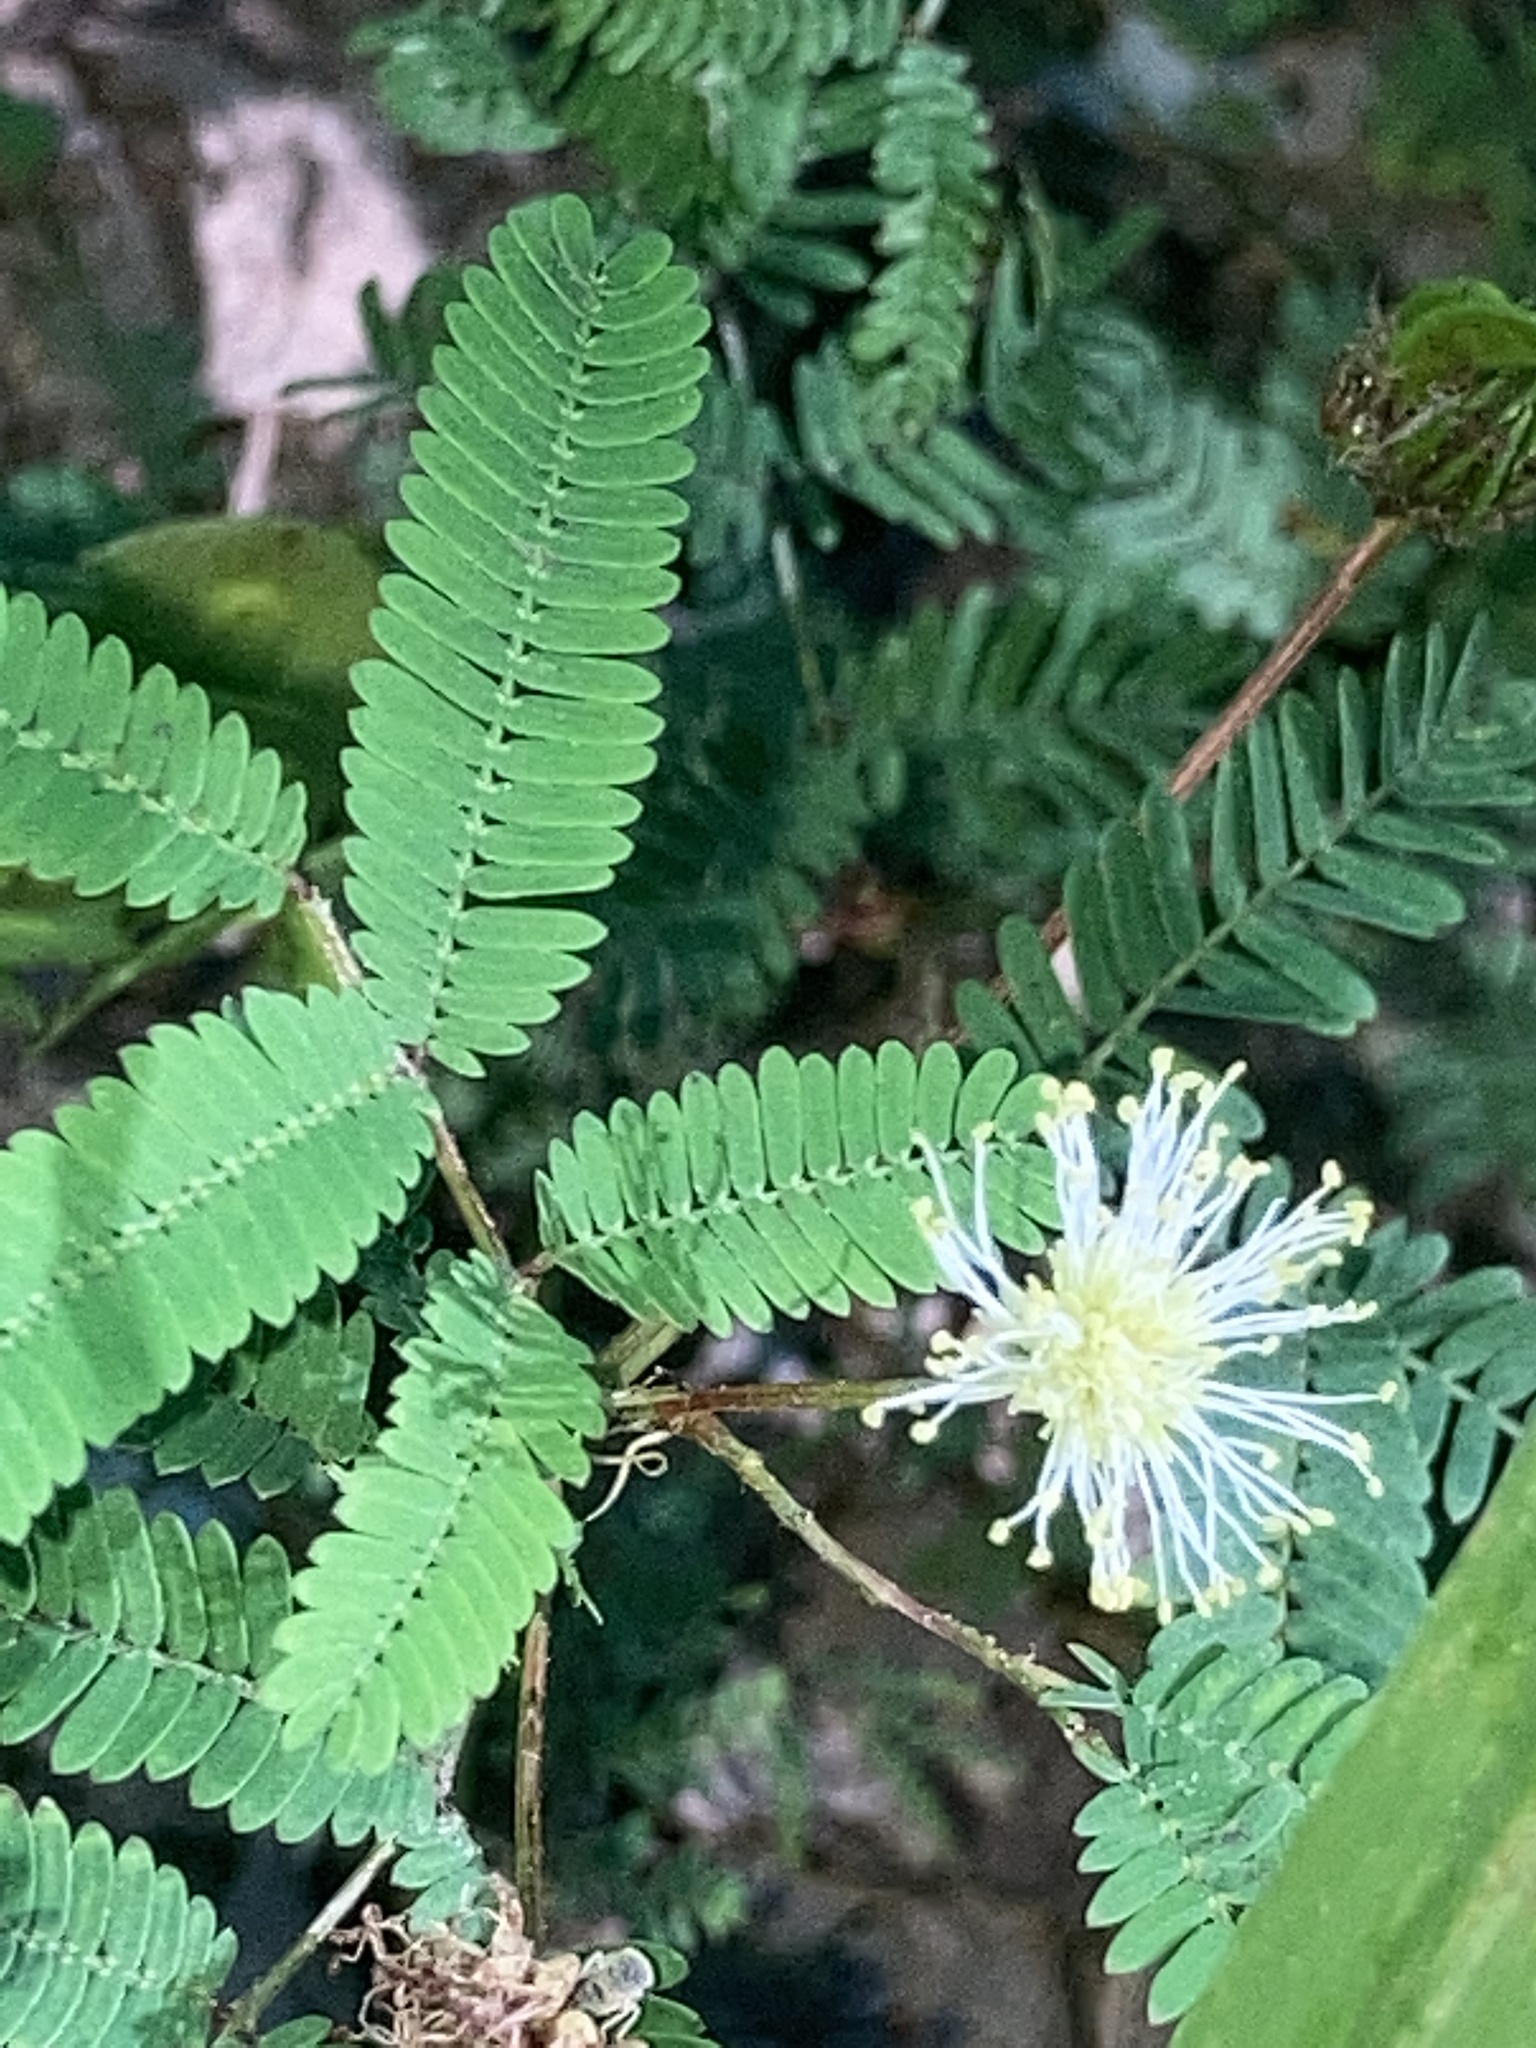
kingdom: Plantae
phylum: Tracheophyta
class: Magnoliopsida
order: Fabales
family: Fabaceae
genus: Desmanthus
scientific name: Desmanthus illinoensis
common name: Illinois bundle-flower
